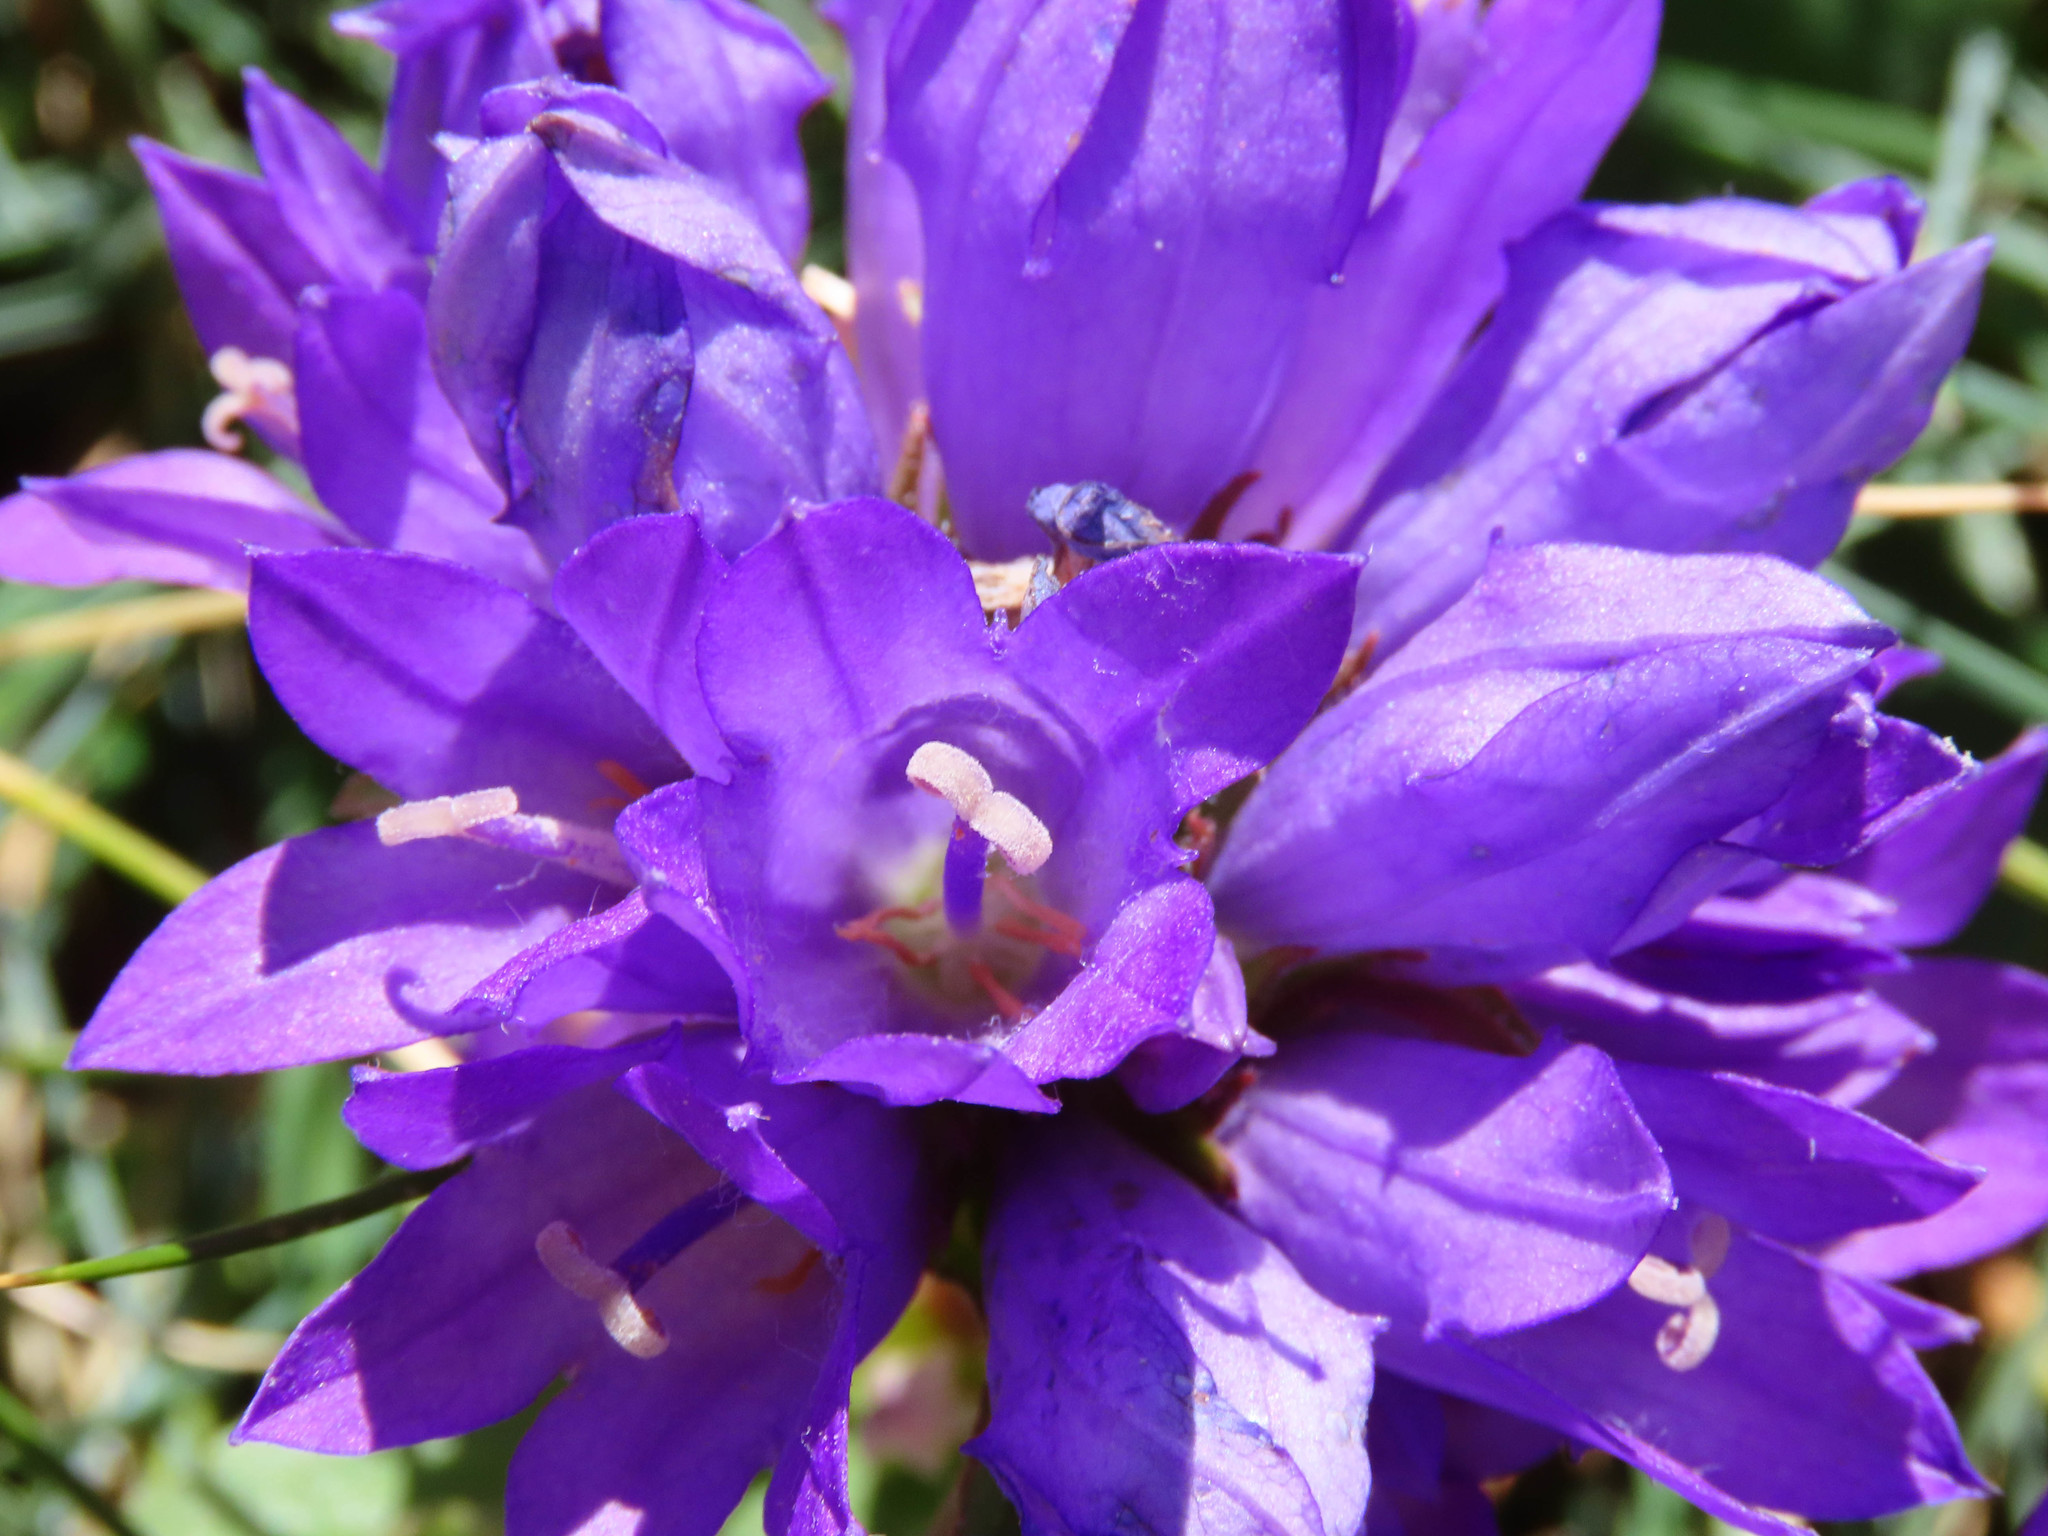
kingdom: Plantae
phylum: Tracheophyta
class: Magnoliopsida
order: Asterales
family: Campanulaceae
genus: Campanula
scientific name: Campanula glomerata
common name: Clustered bellflower
